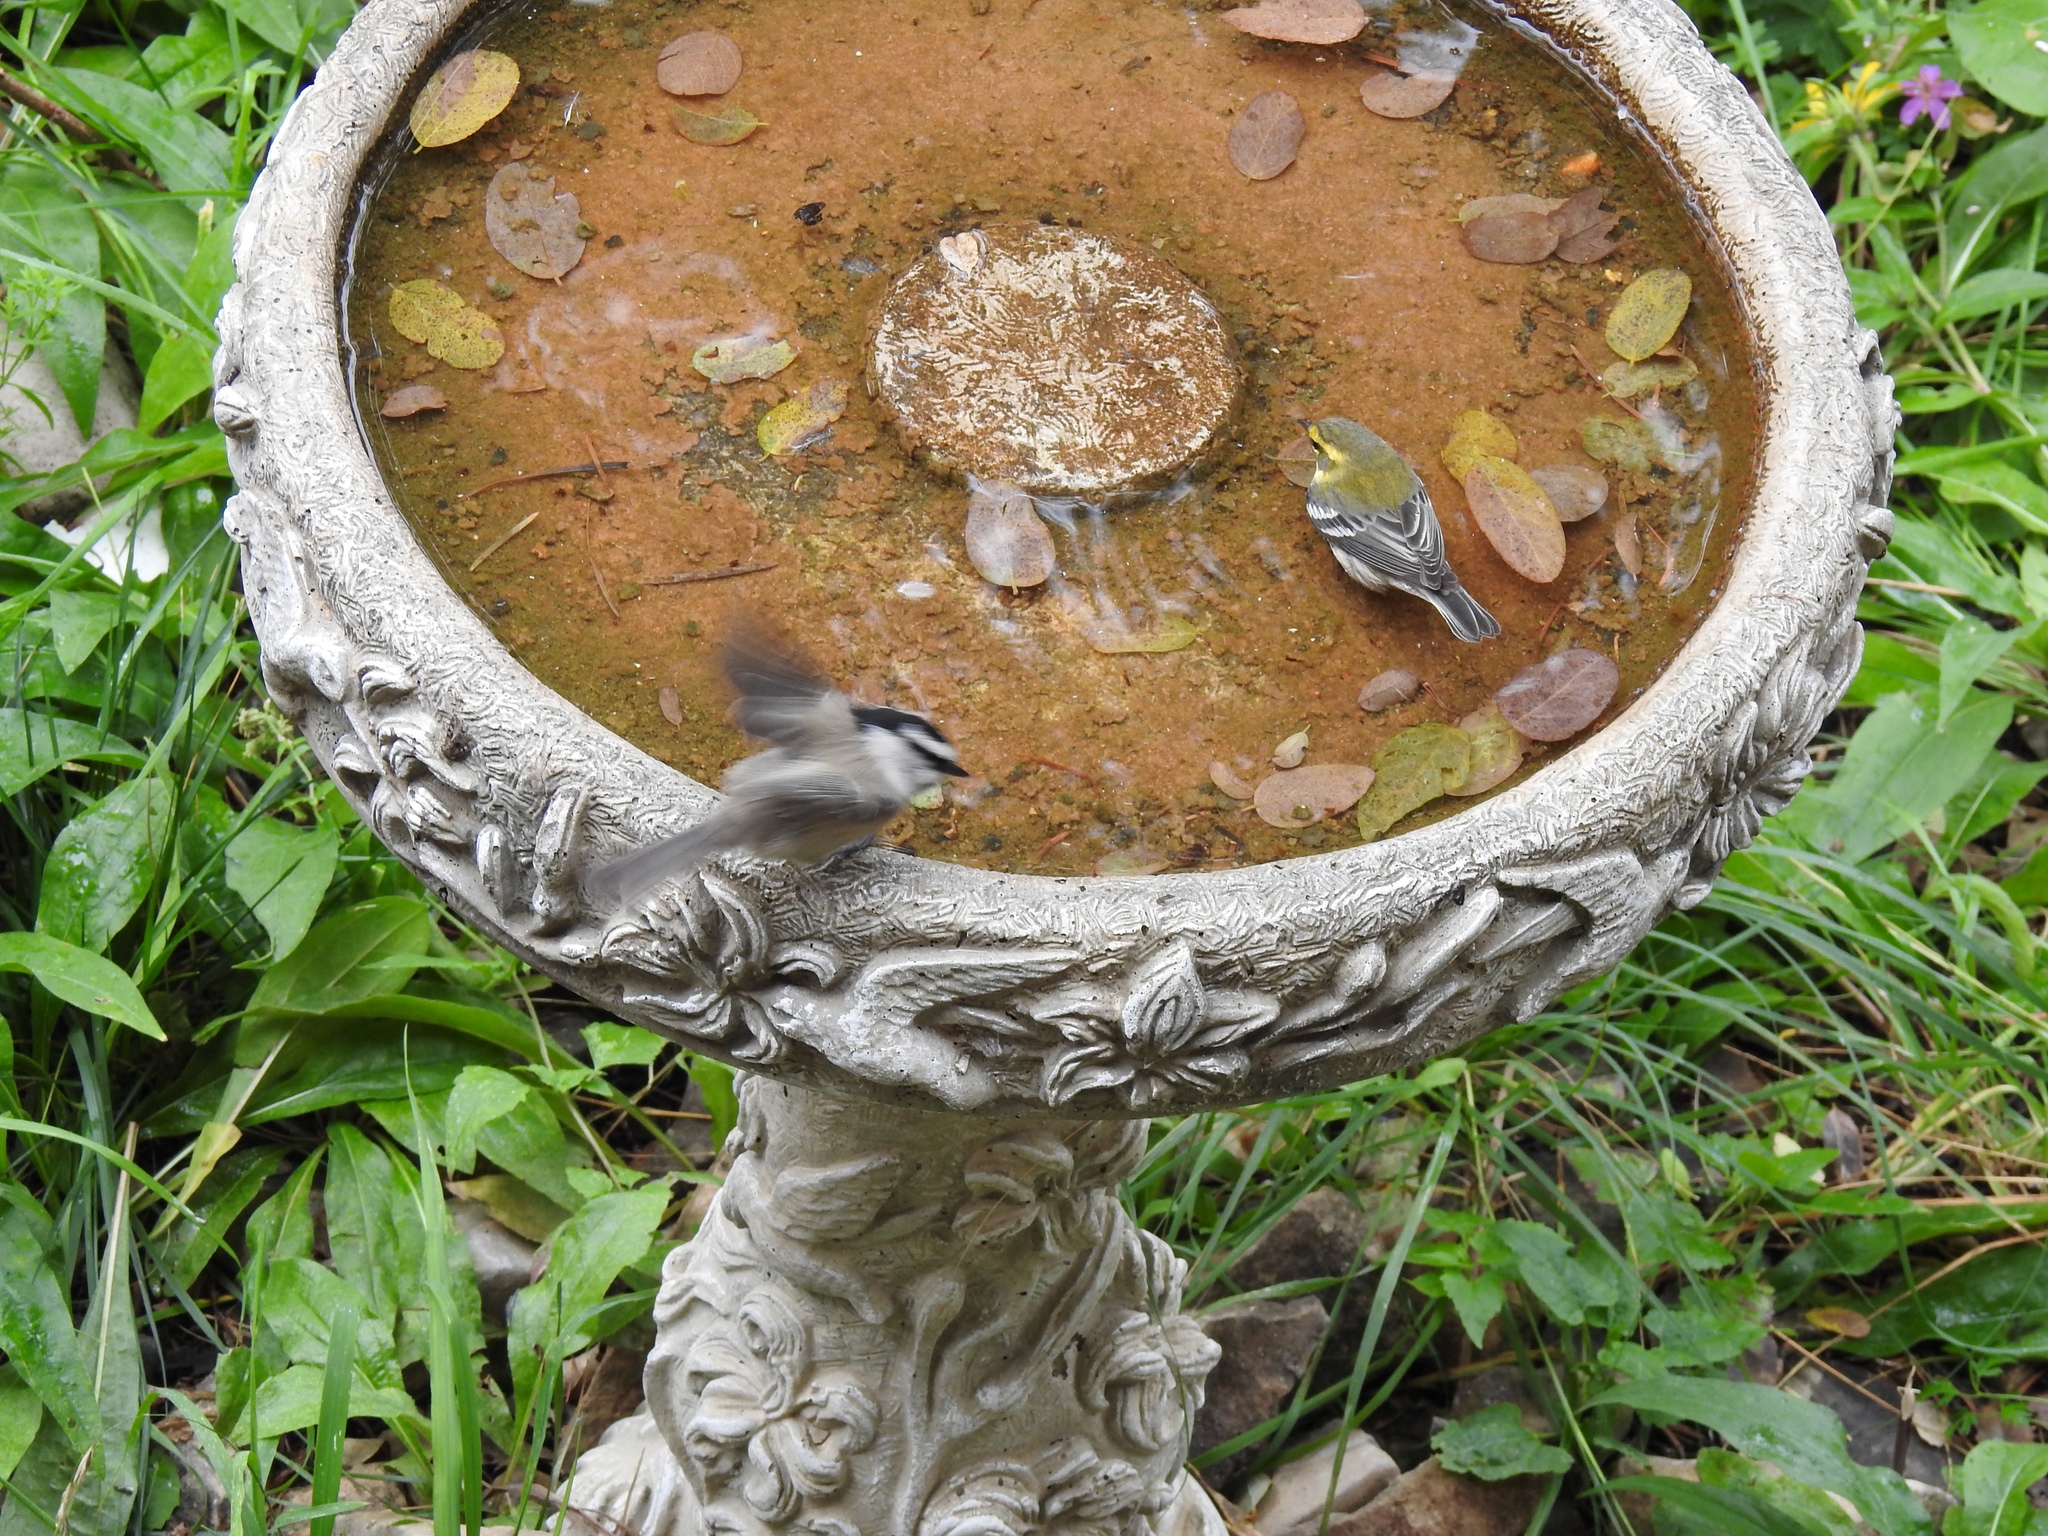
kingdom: Animalia
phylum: Chordata
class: Aves
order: Passeriformes
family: Parulidae
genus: Setophaga
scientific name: Setophaga townsendi
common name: Townsend's warbler
